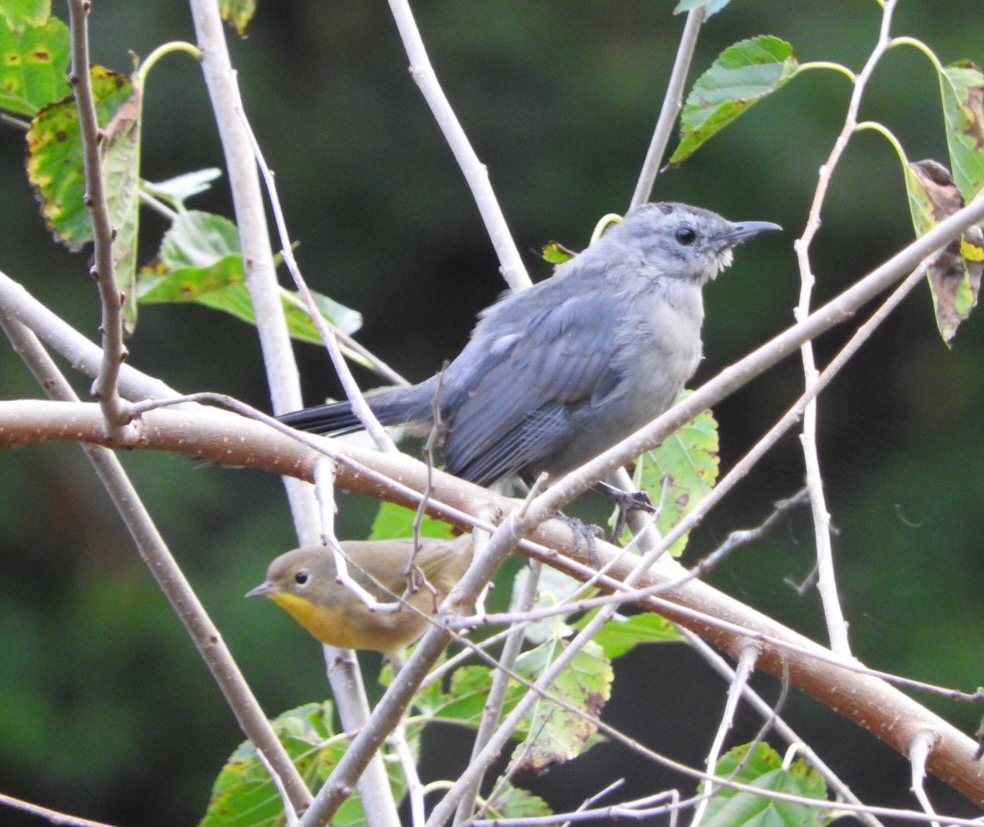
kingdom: Animalia
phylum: Chordata
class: Aves
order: Passeriformes
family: Mimidae
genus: Dumetella
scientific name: Dumetella carolinensis
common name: Gray catbird
